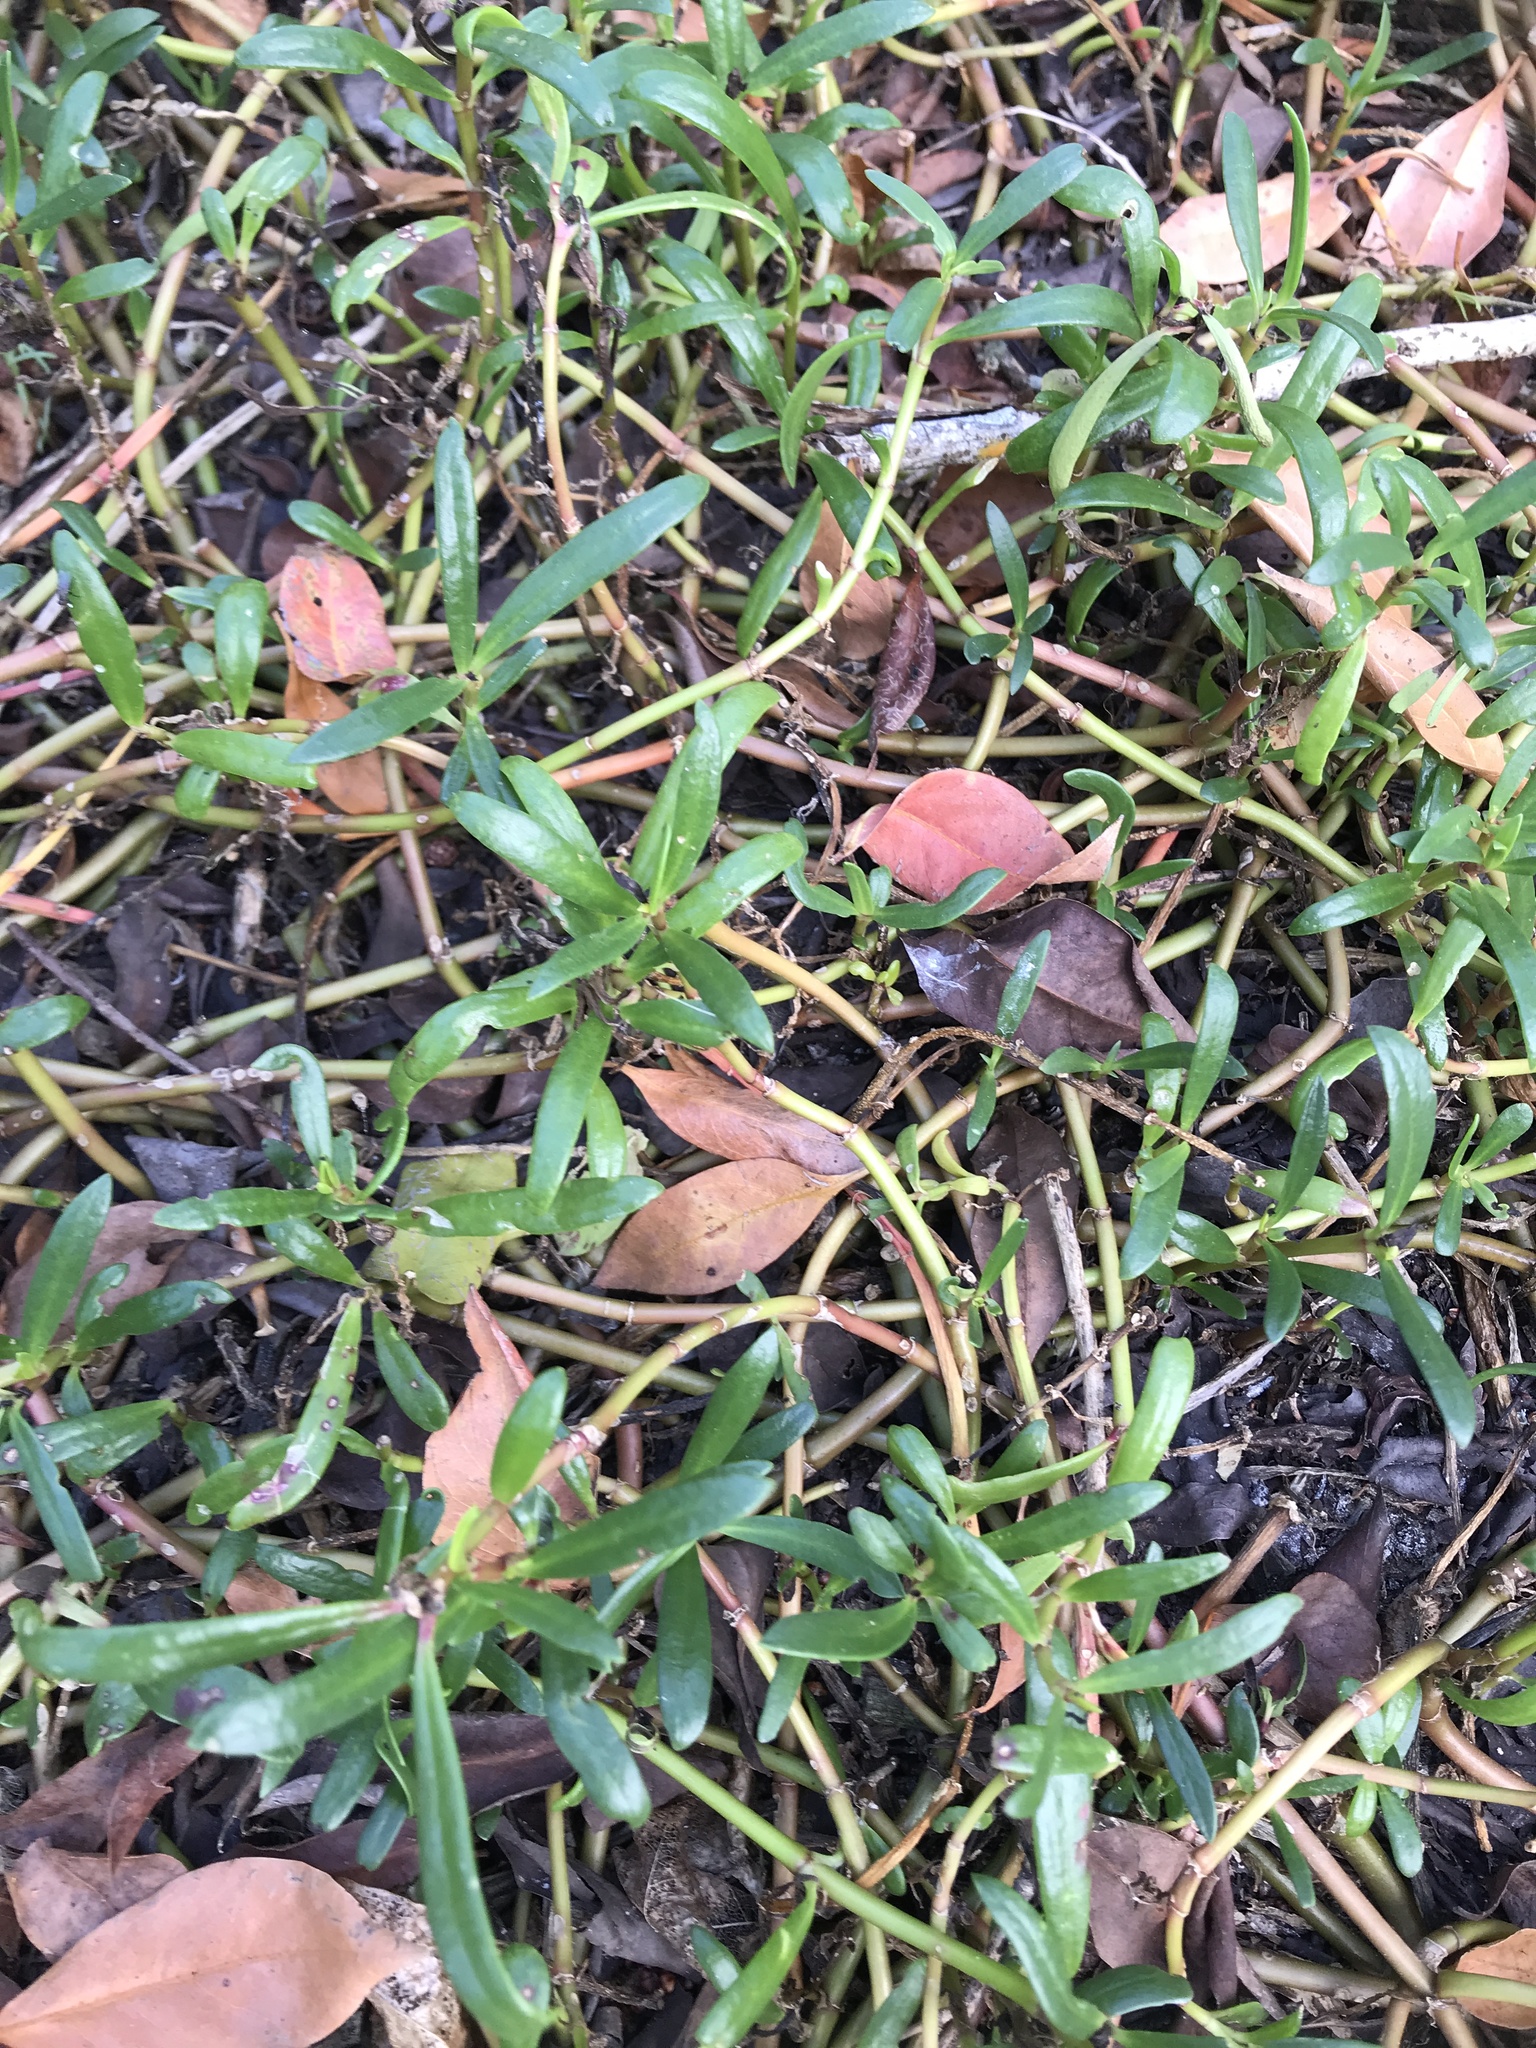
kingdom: Plantae
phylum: Tracheophyta
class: Magnoliopsida
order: Caryophyllales
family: Aizoaceae
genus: Sesuvium
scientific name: Sesuvium portulacastrum
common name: Sea-purslane
